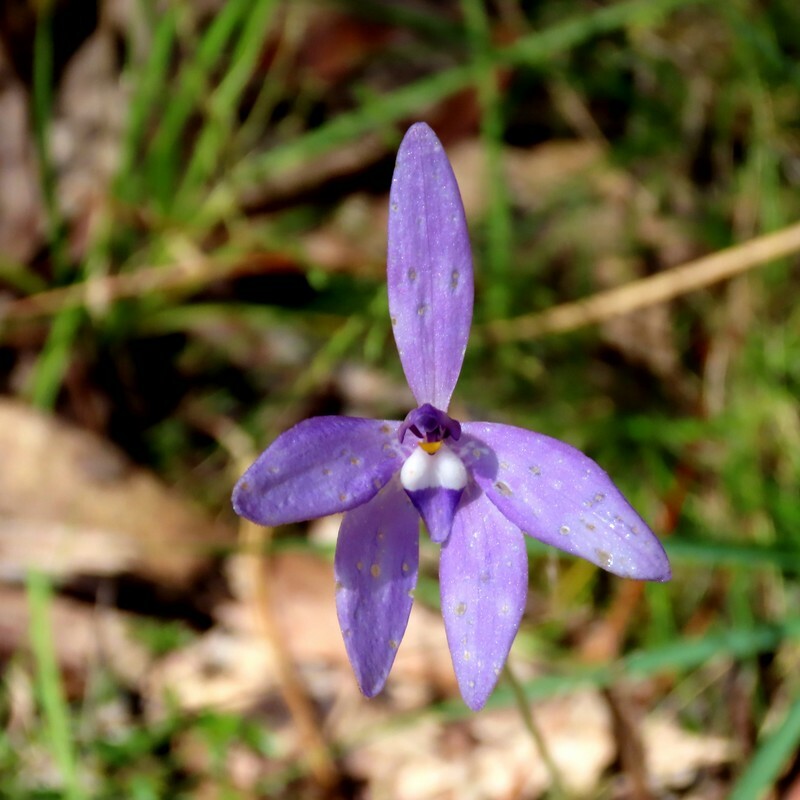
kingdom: Plantae
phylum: Tracheophyta
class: Liliopsida
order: Asparagales
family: Orchidaceae
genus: Caladenia
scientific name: Caladenia major
